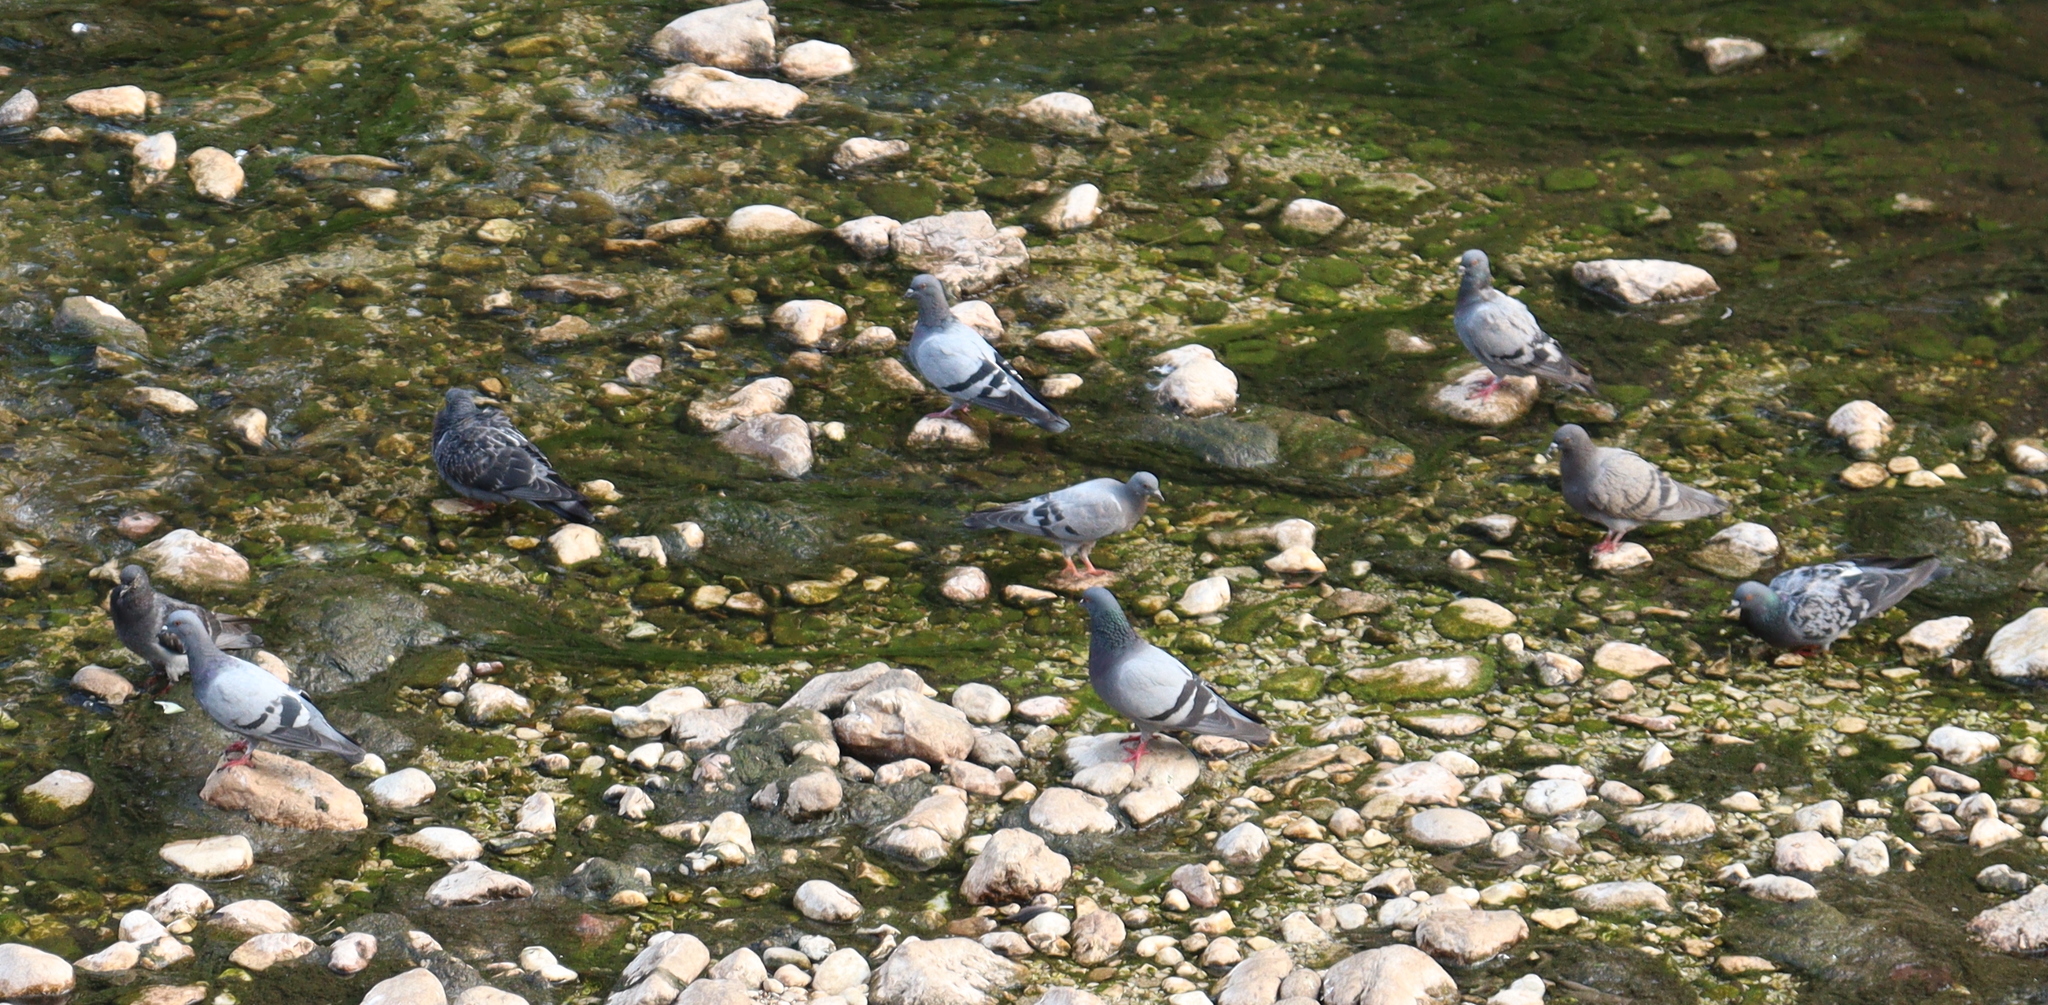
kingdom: Animalia
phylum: Chordata
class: Aves
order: Columbiformes
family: Columbidae
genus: Columba
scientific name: Columba livia
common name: Rock pigeon
